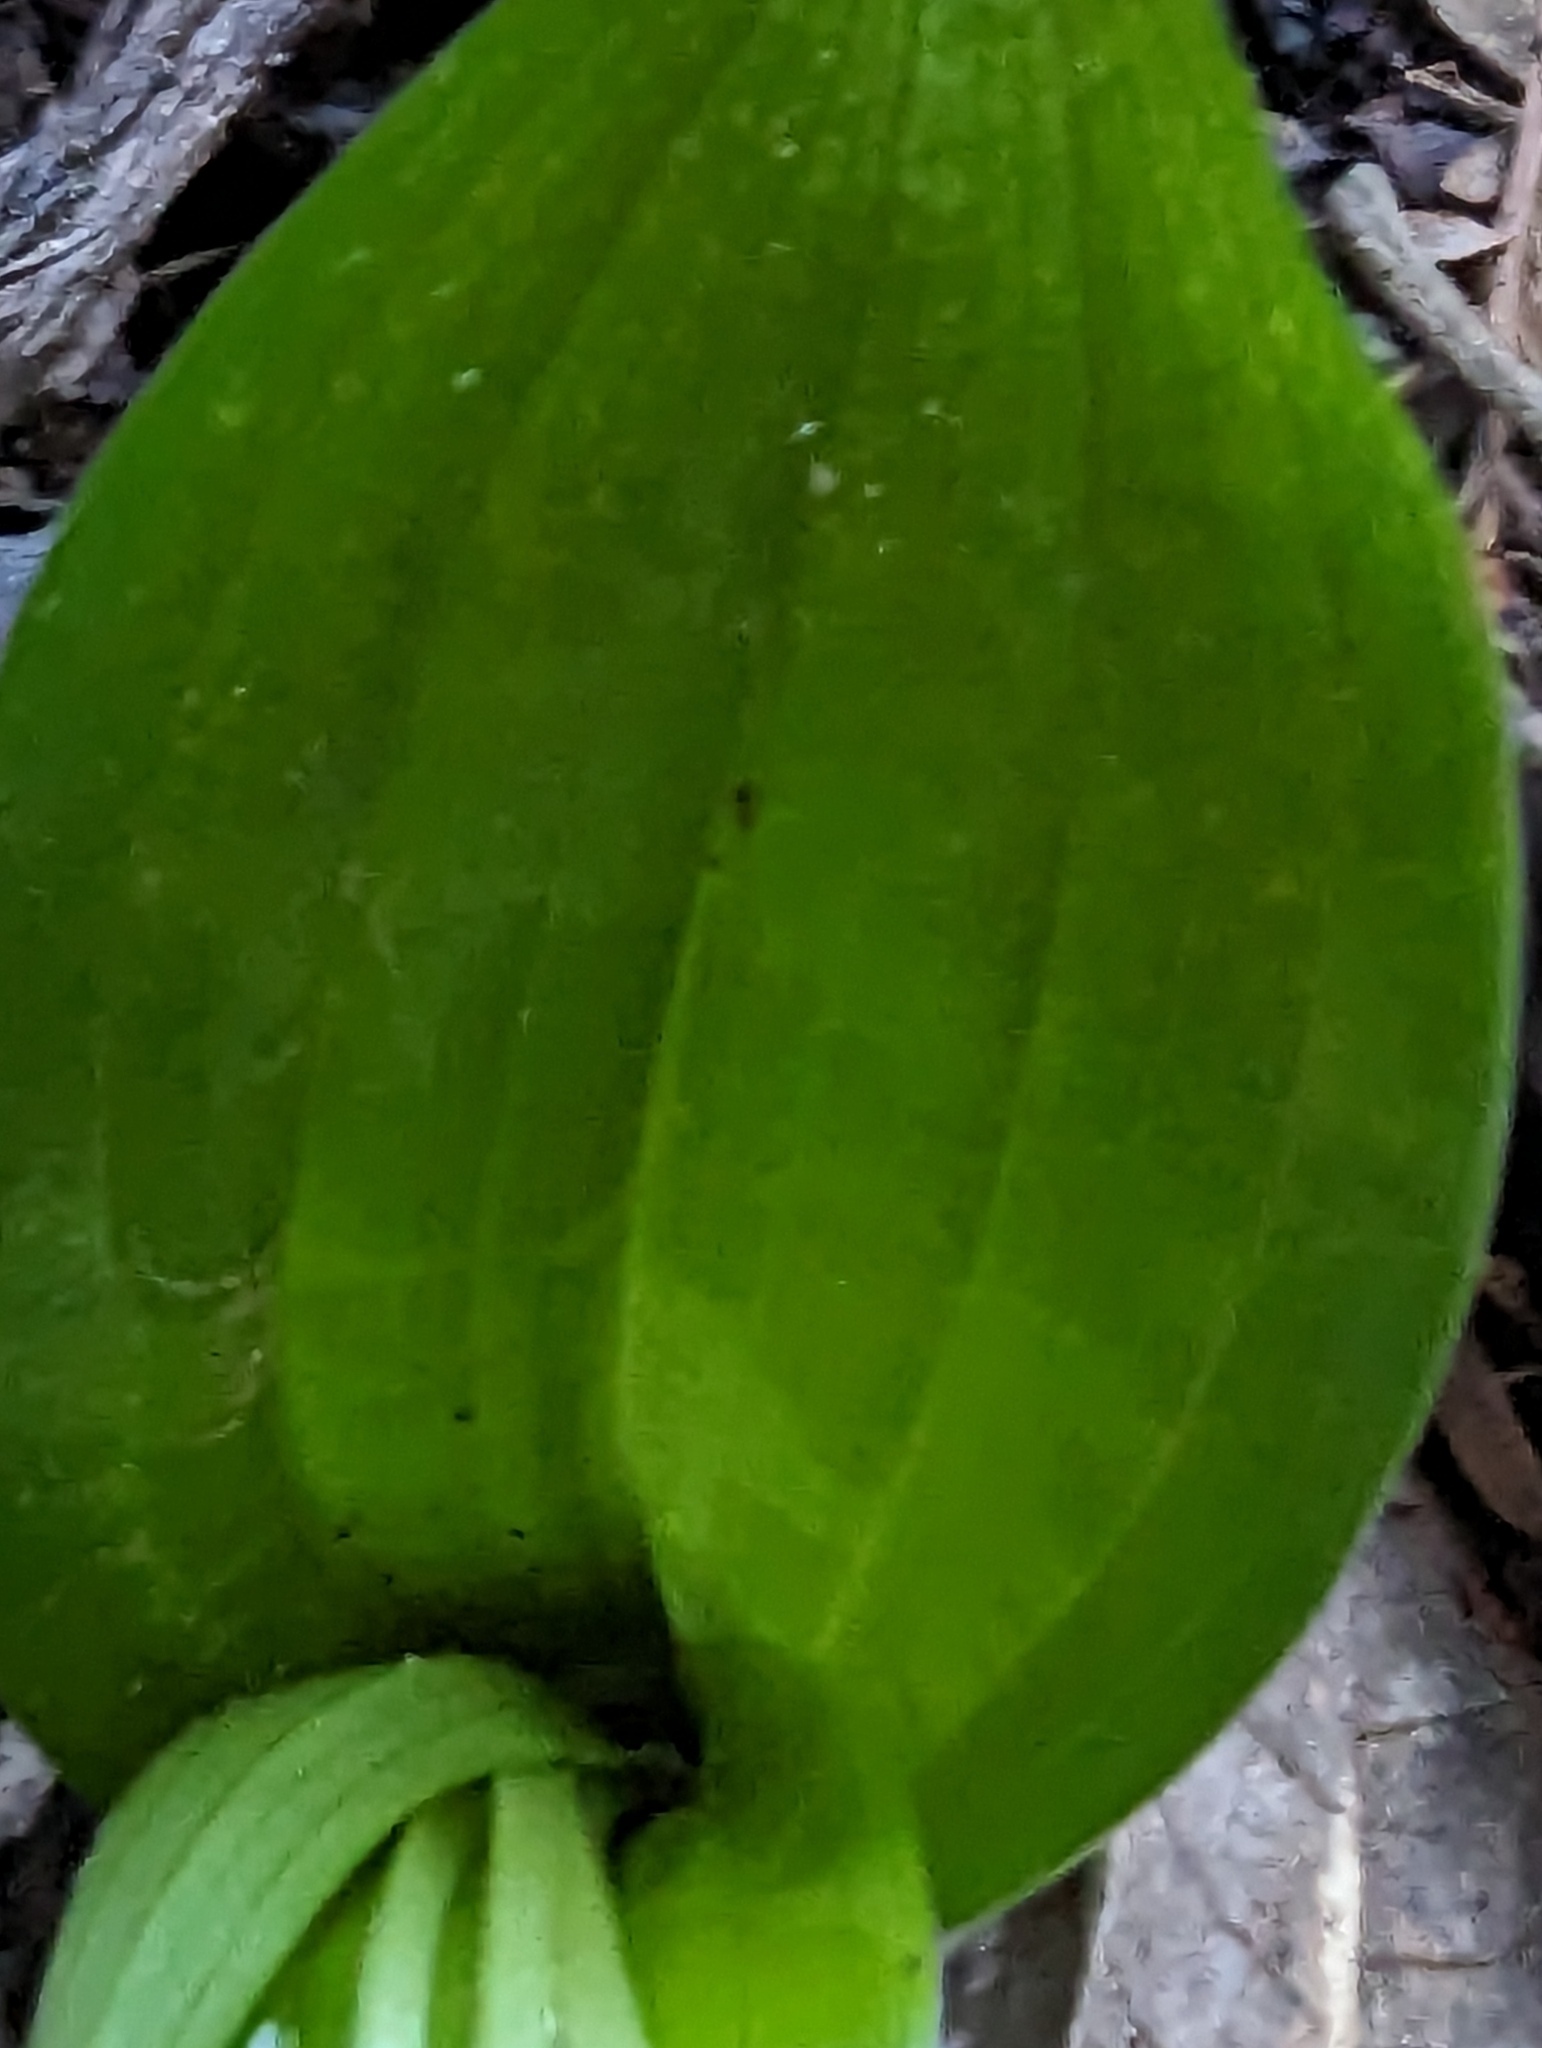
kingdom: Plantae
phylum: Tracheophyta
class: Liliopsida
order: Liliales
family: Liliaceae
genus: Scoliopus
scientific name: Scoliopus bigelovii
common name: Foetid adder's-tongue
